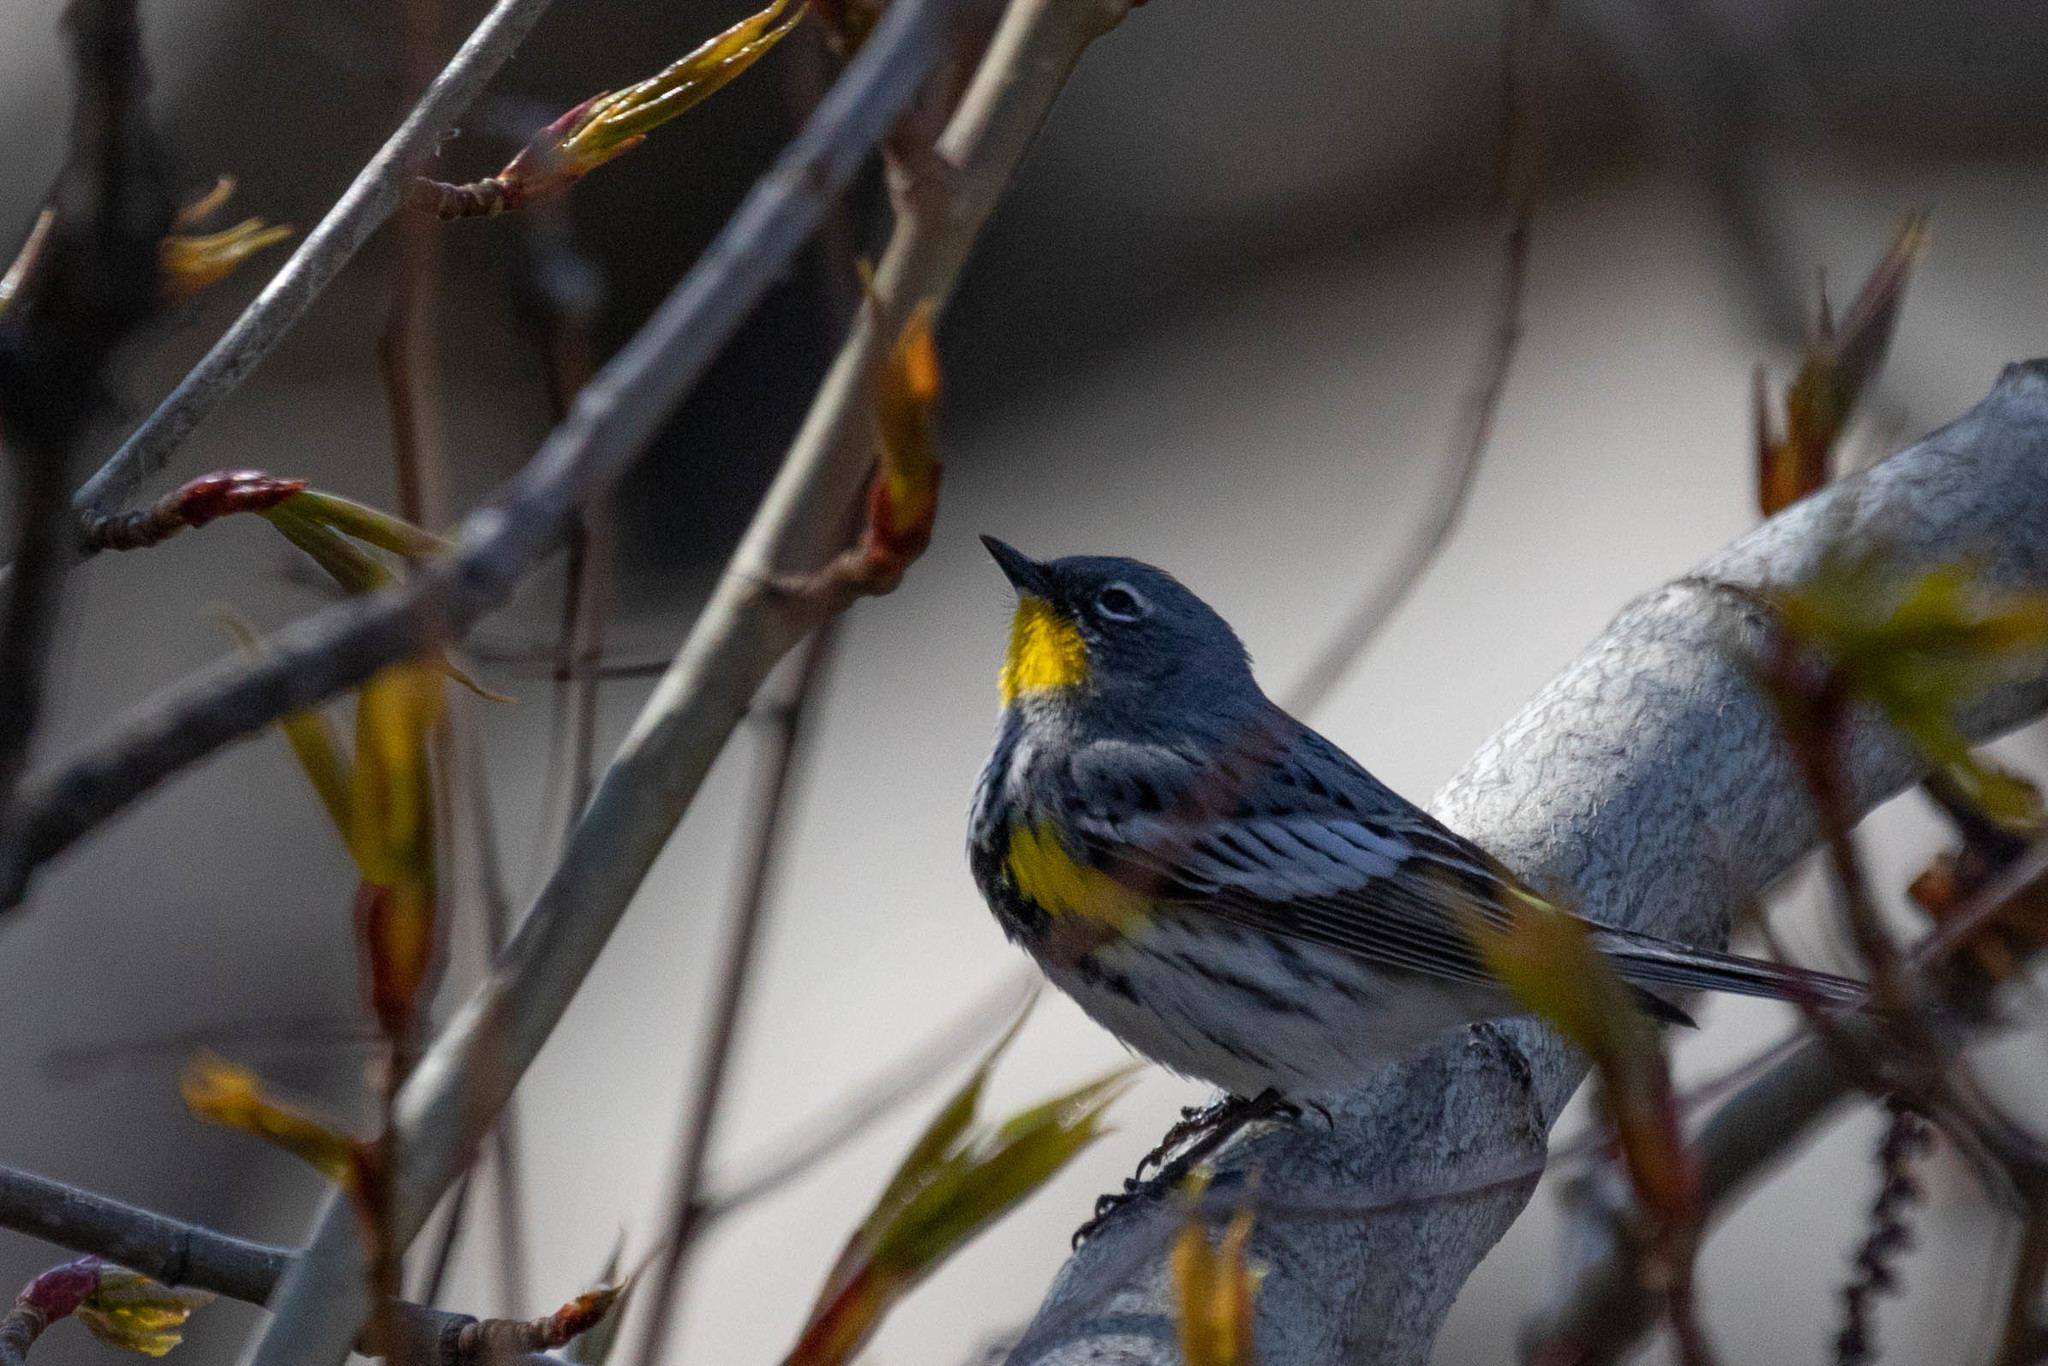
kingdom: Animalia
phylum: Chordata
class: Aves
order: Passeriformes
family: Parulidae
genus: Setophaga
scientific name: Setophaga auduboni
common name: Audubon's warbler
